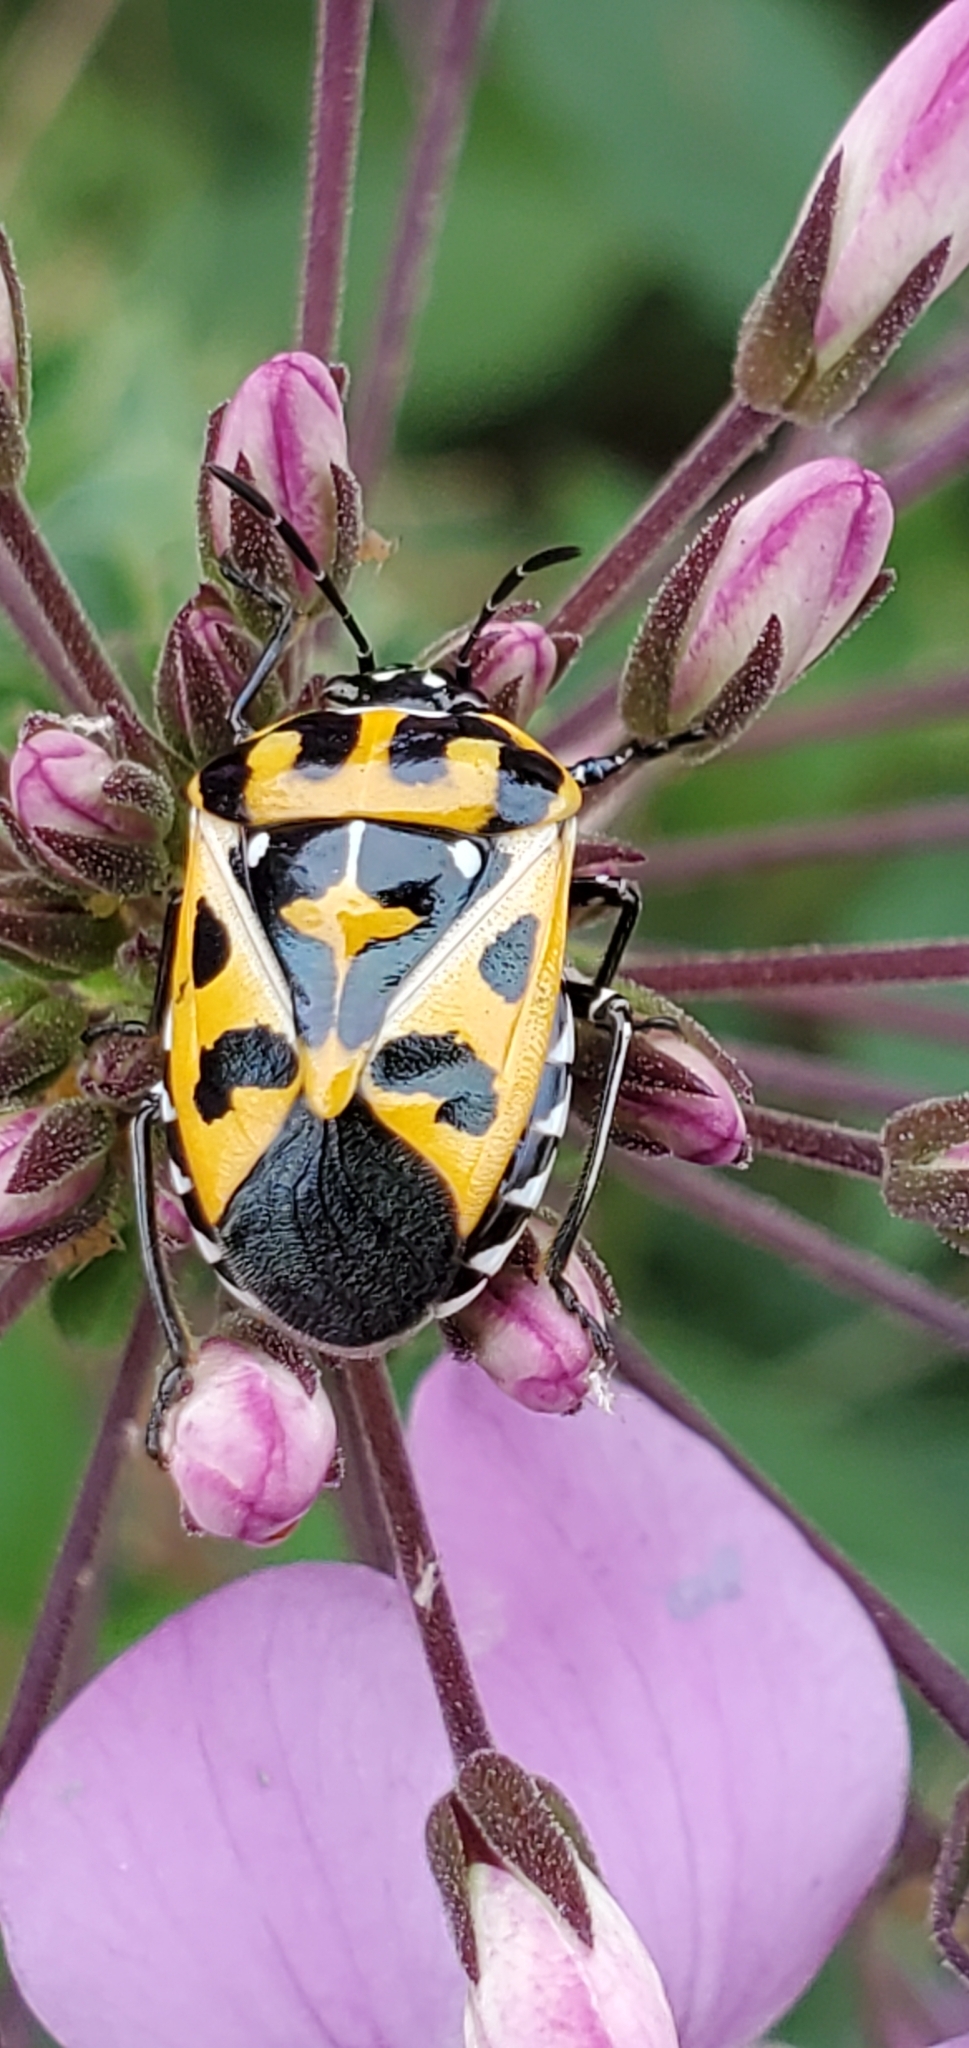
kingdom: Animalia
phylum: Arthropoda
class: Insecta
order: Hemiptera
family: Pentatomidae
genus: Murgantia
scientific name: Murgantia histrionica
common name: Harlequin bug
